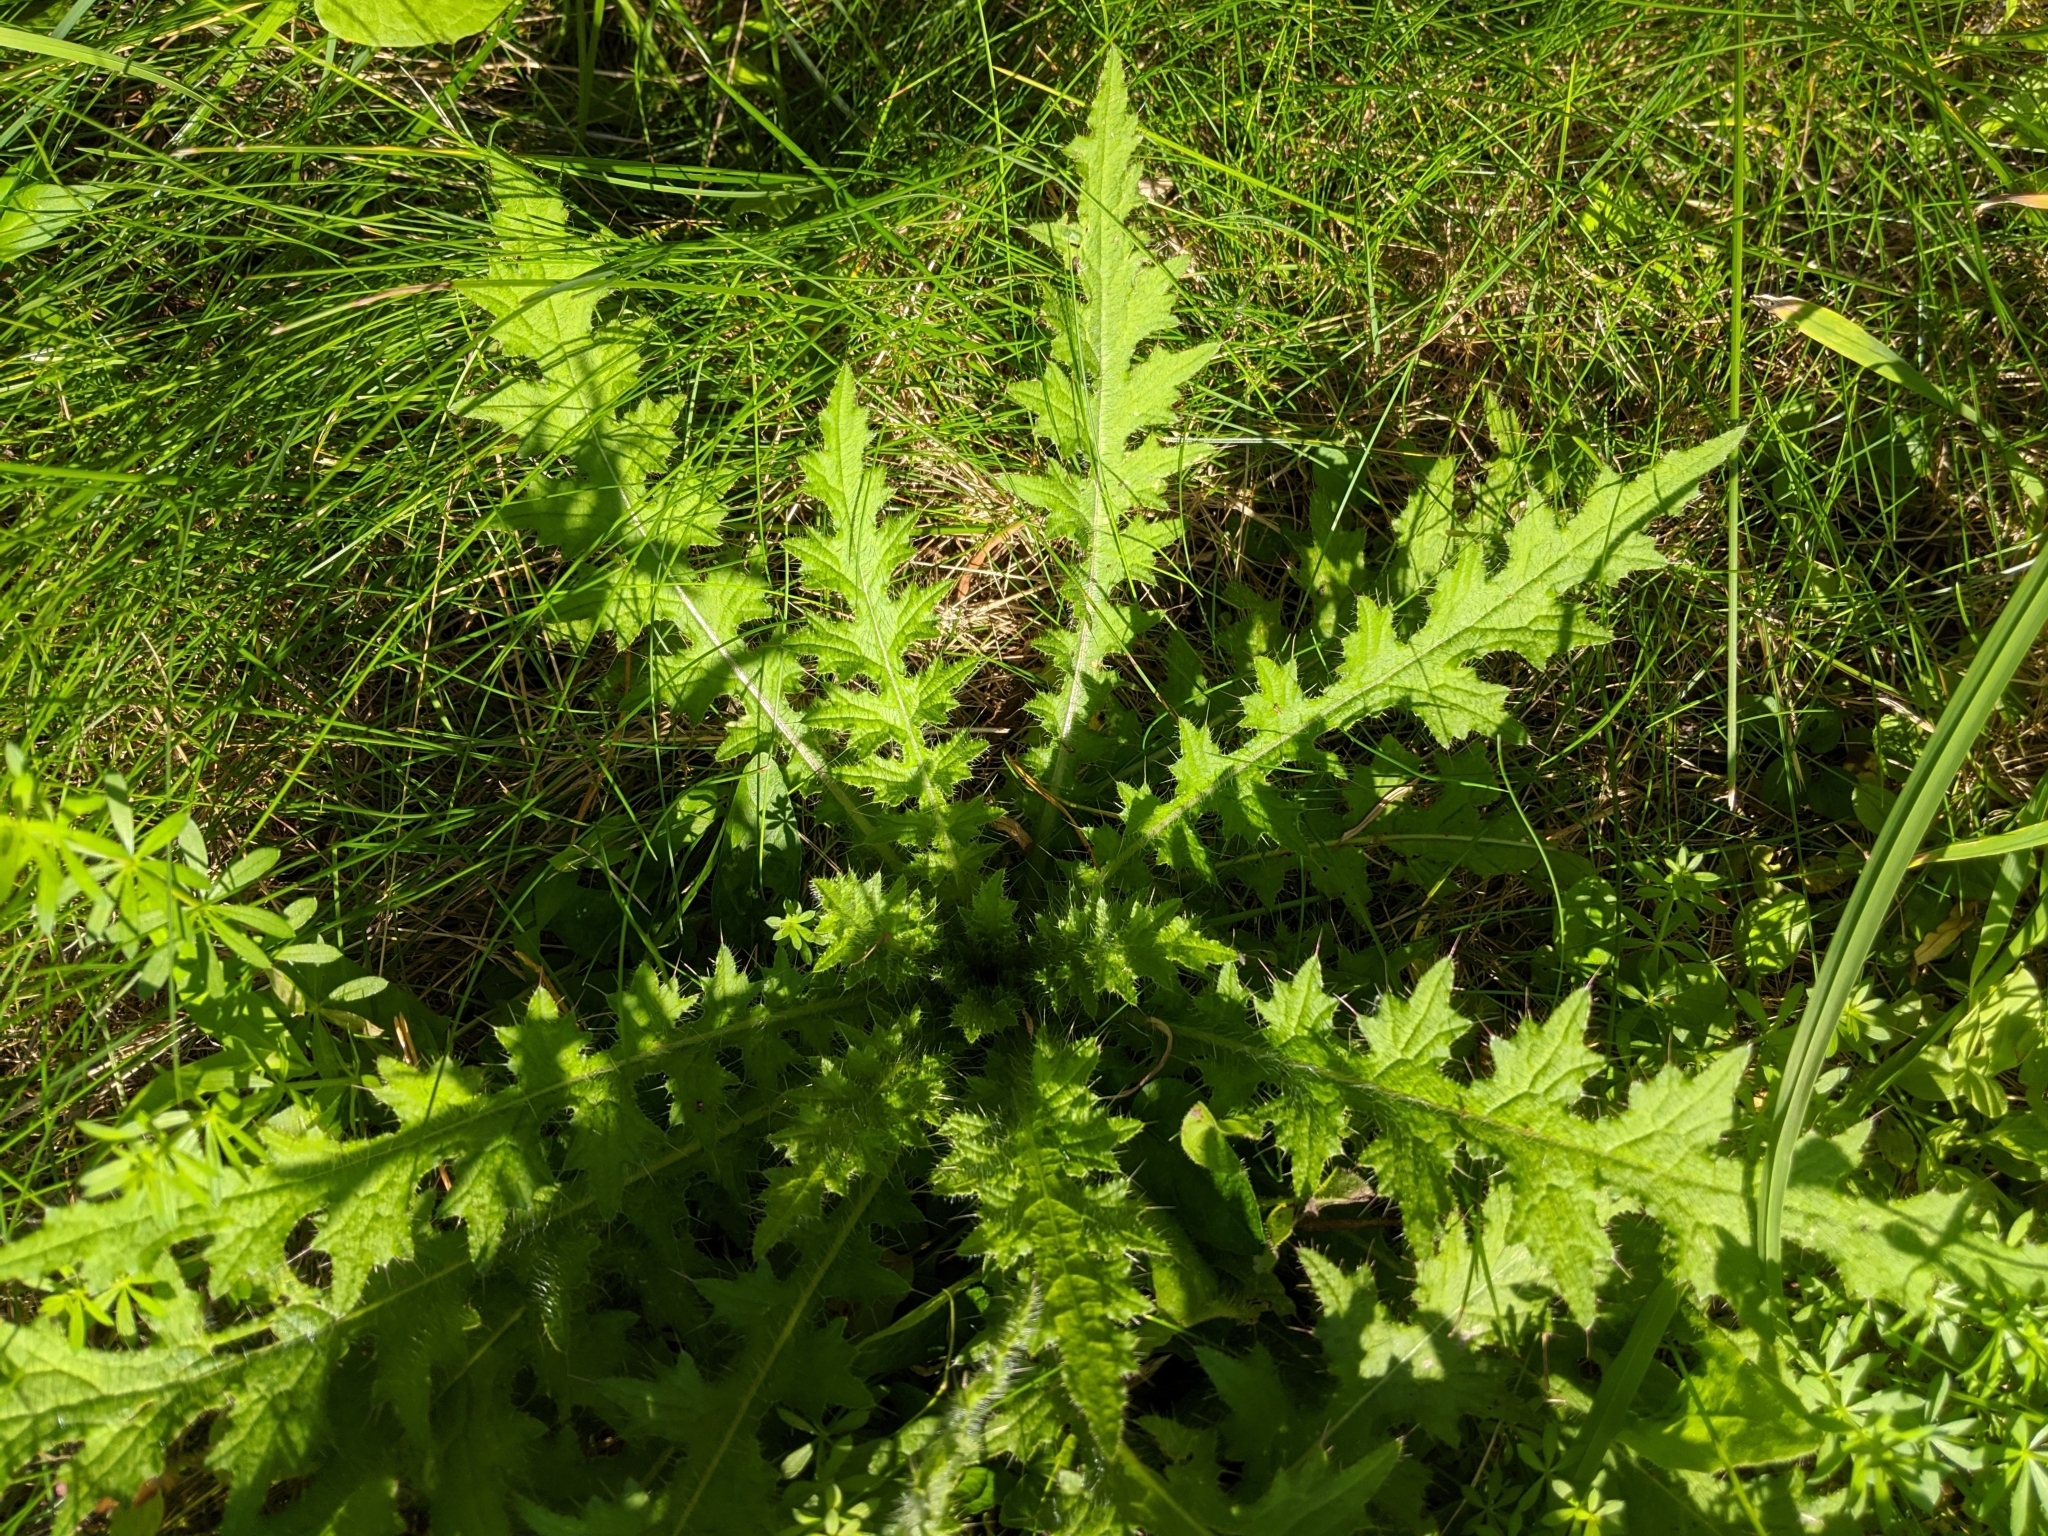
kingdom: Plantae
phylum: Tracheophyta
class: Magnoliopsida
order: Asterales
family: Asteraceae
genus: Cirsium
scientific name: Cirsium palustre
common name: Marsh thistle
